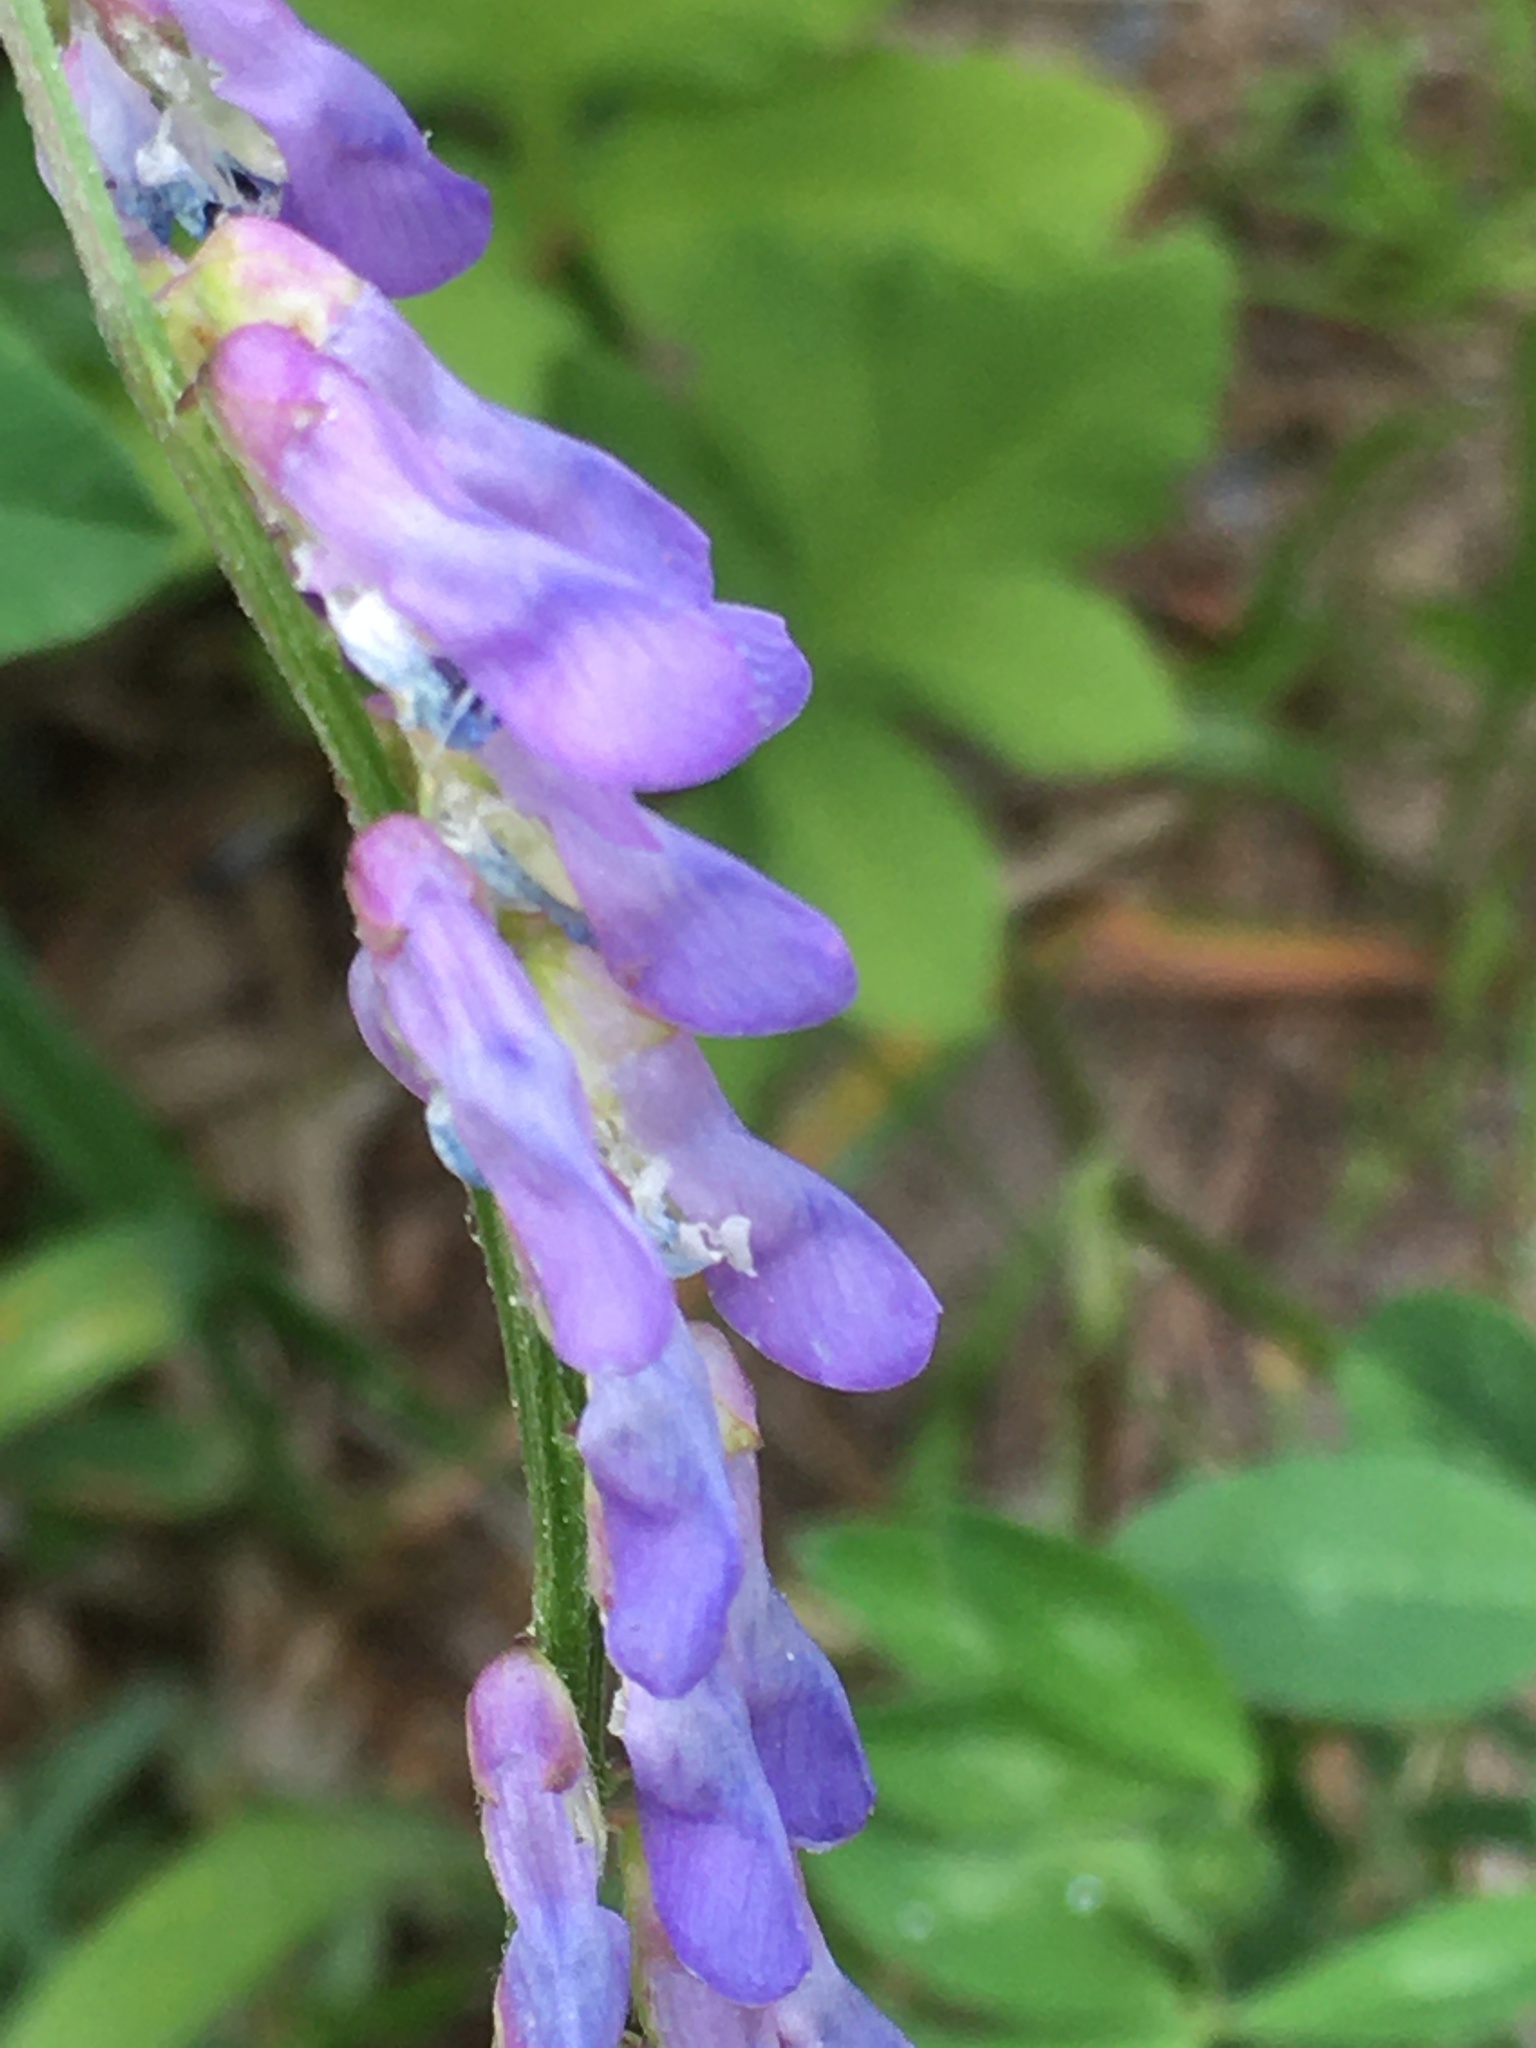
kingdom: Plantae
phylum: Tracheophyta
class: Magnoliopsida
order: Fabales
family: Fabaceae
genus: Vicia
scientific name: Vicia cracca
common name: Bird vetch
